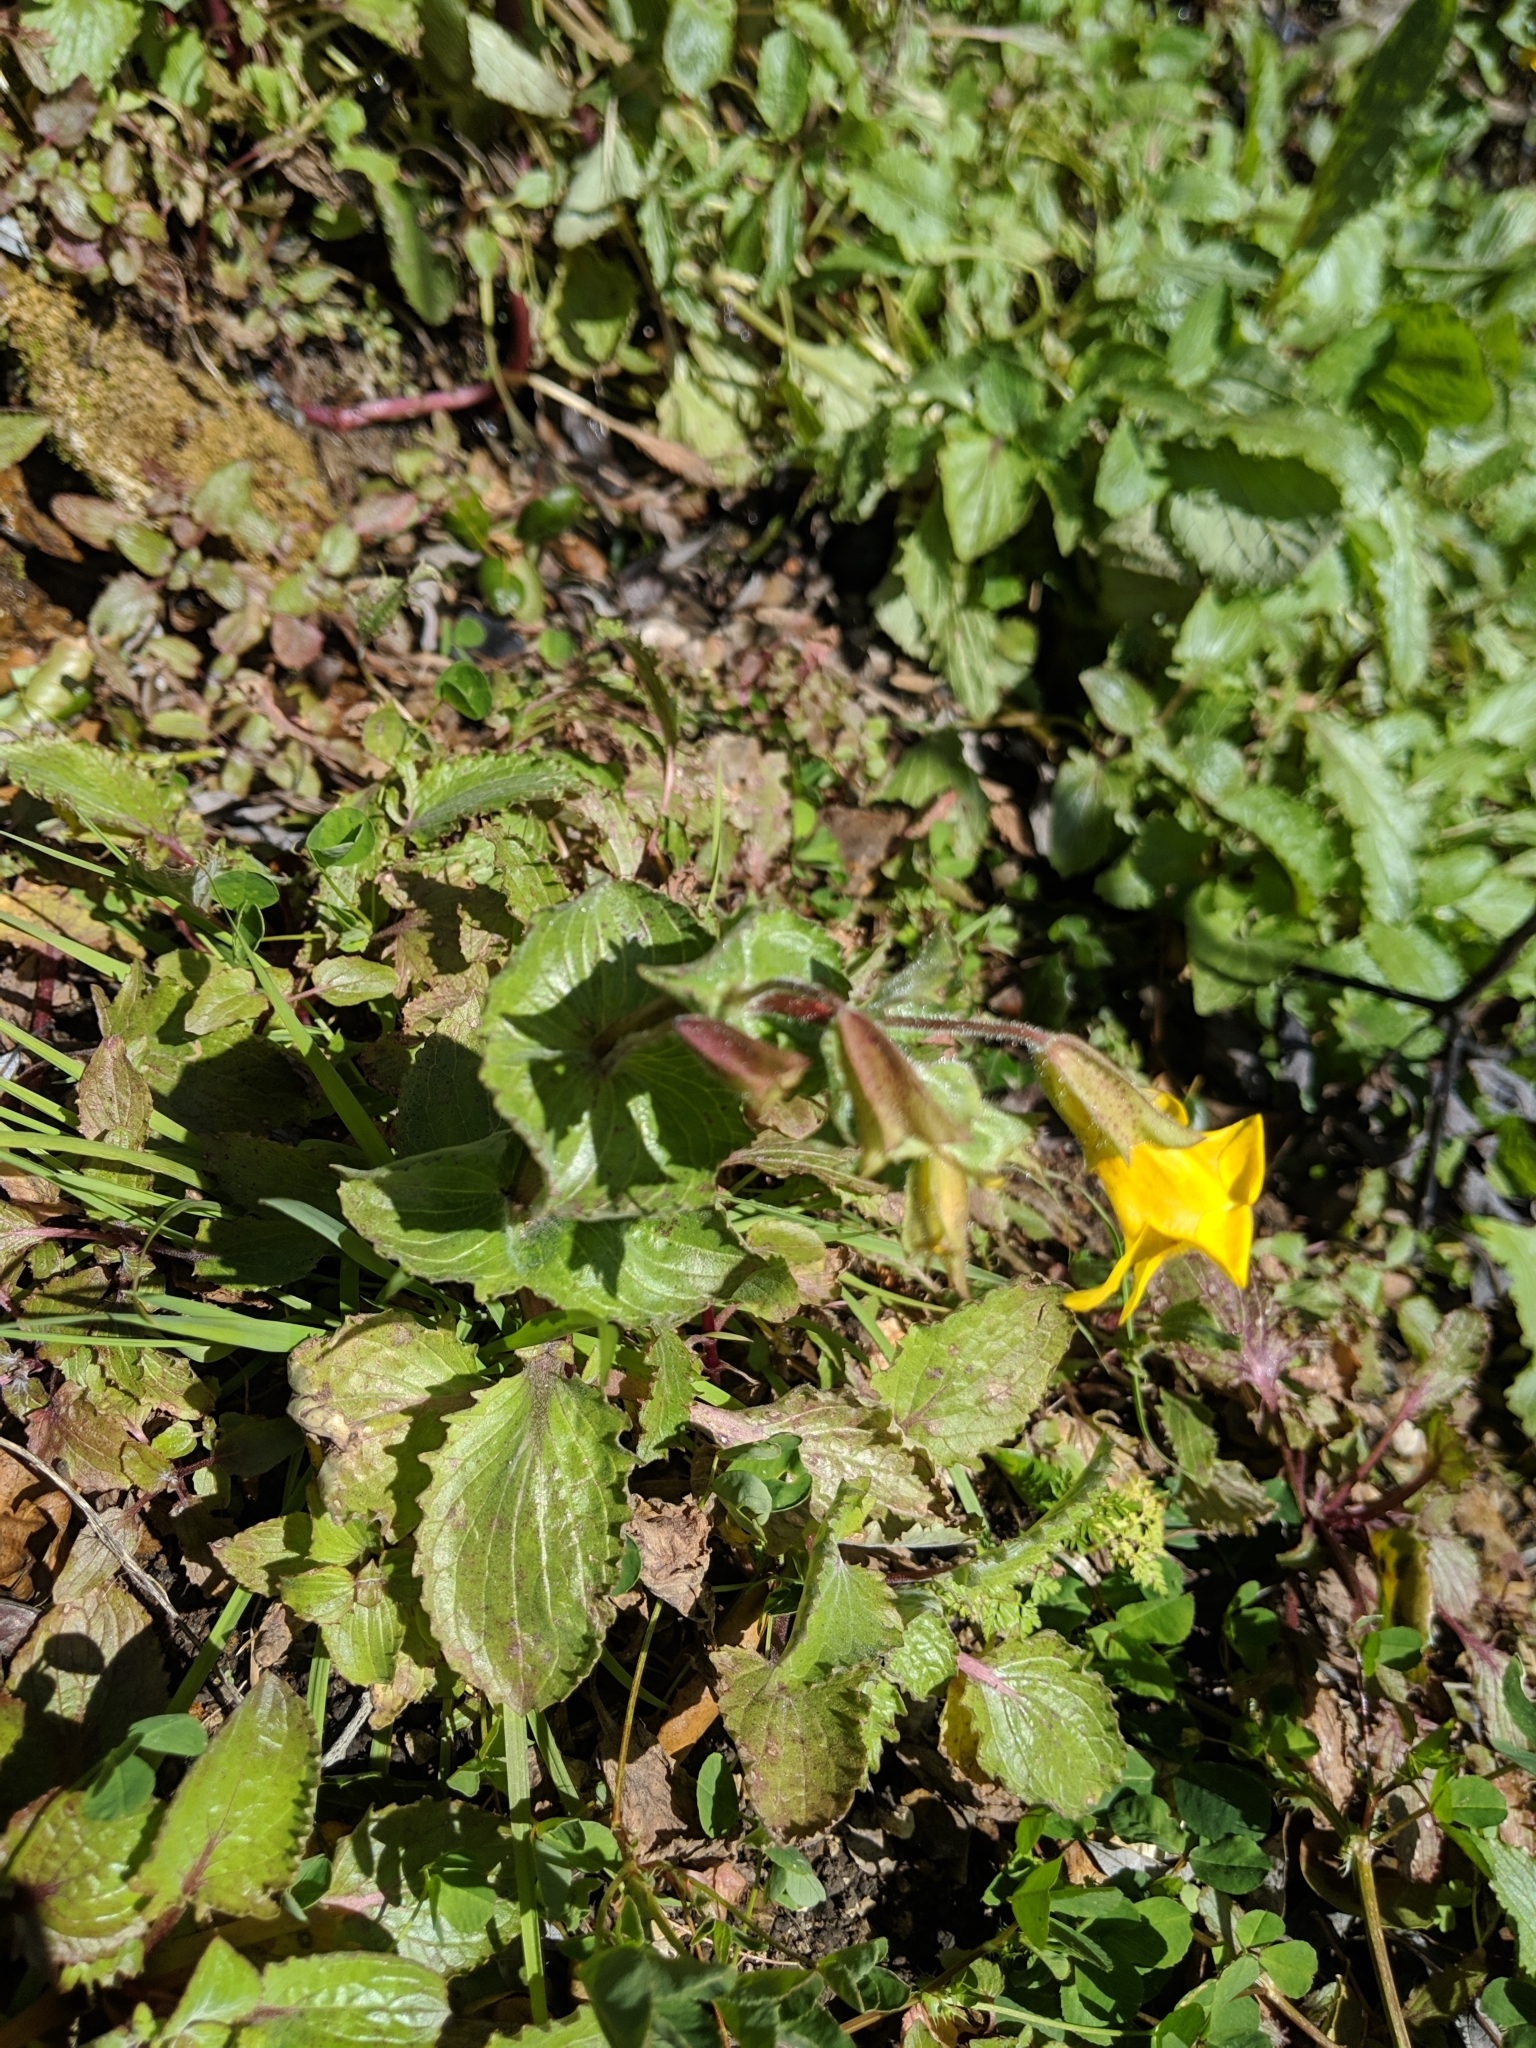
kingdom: Plantae
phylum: Tracheophyta
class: Magnoliopsida
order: Lamiales
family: Phrymaceae
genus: Erythranthe
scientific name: Erythranthe guttata
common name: Monkeyflower
